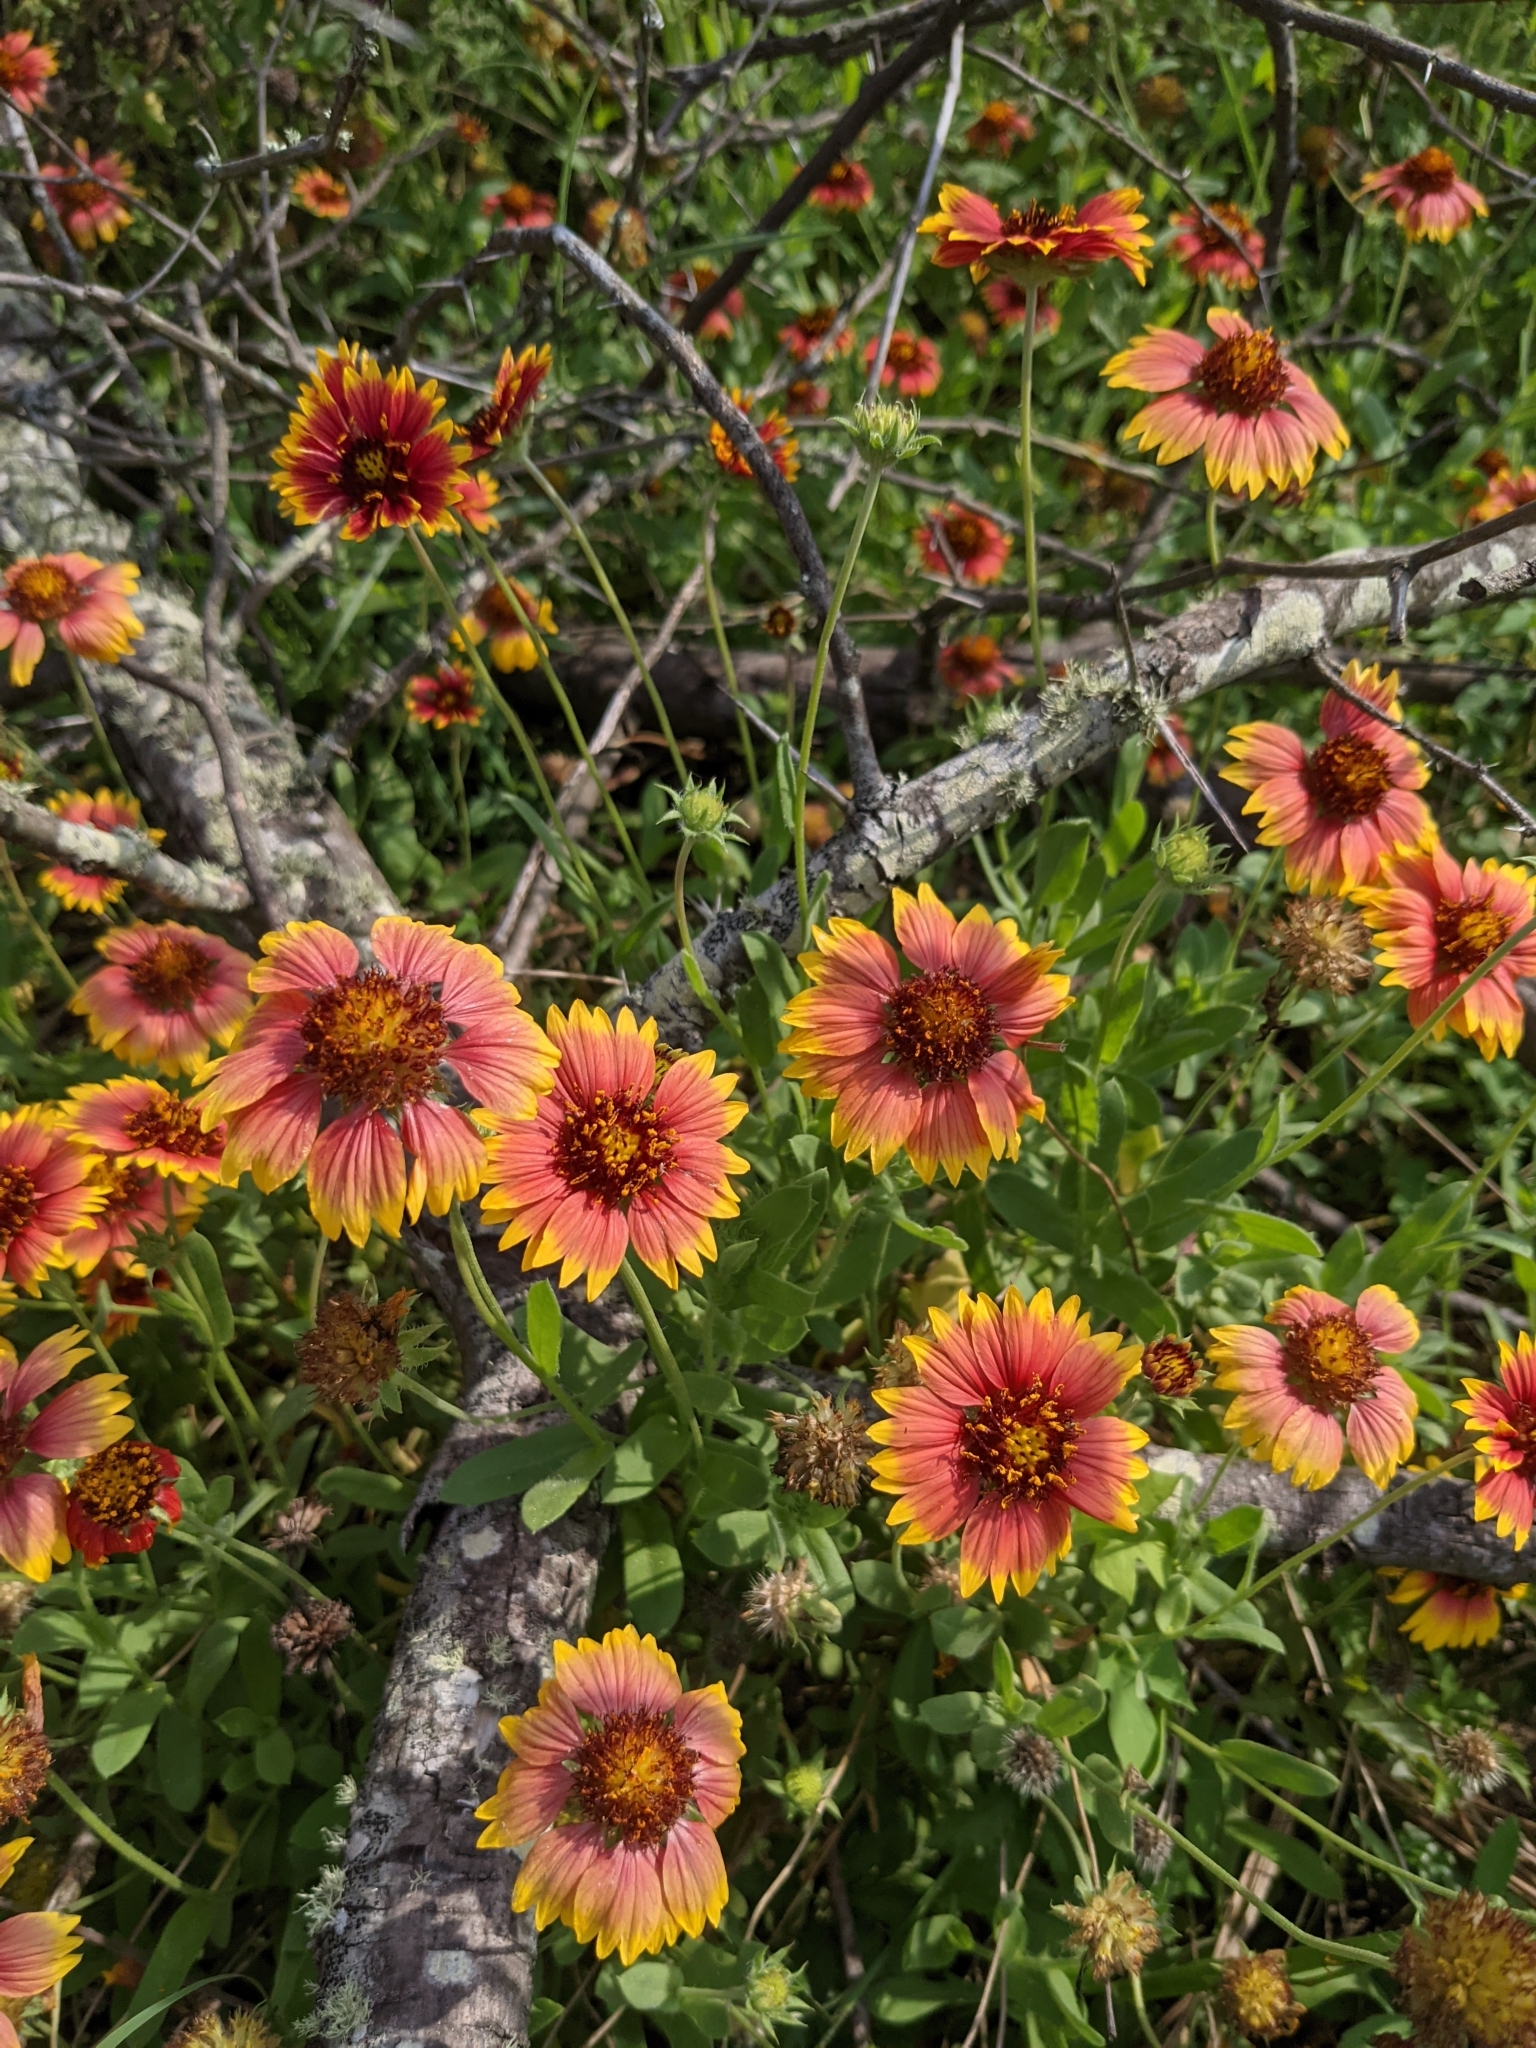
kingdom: Plantae
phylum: Tracheophyta
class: Magnoliopsida
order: Asterales
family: Asteraceae
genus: Gaillardia
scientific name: Gaillardia pulchella
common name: Firewheel
